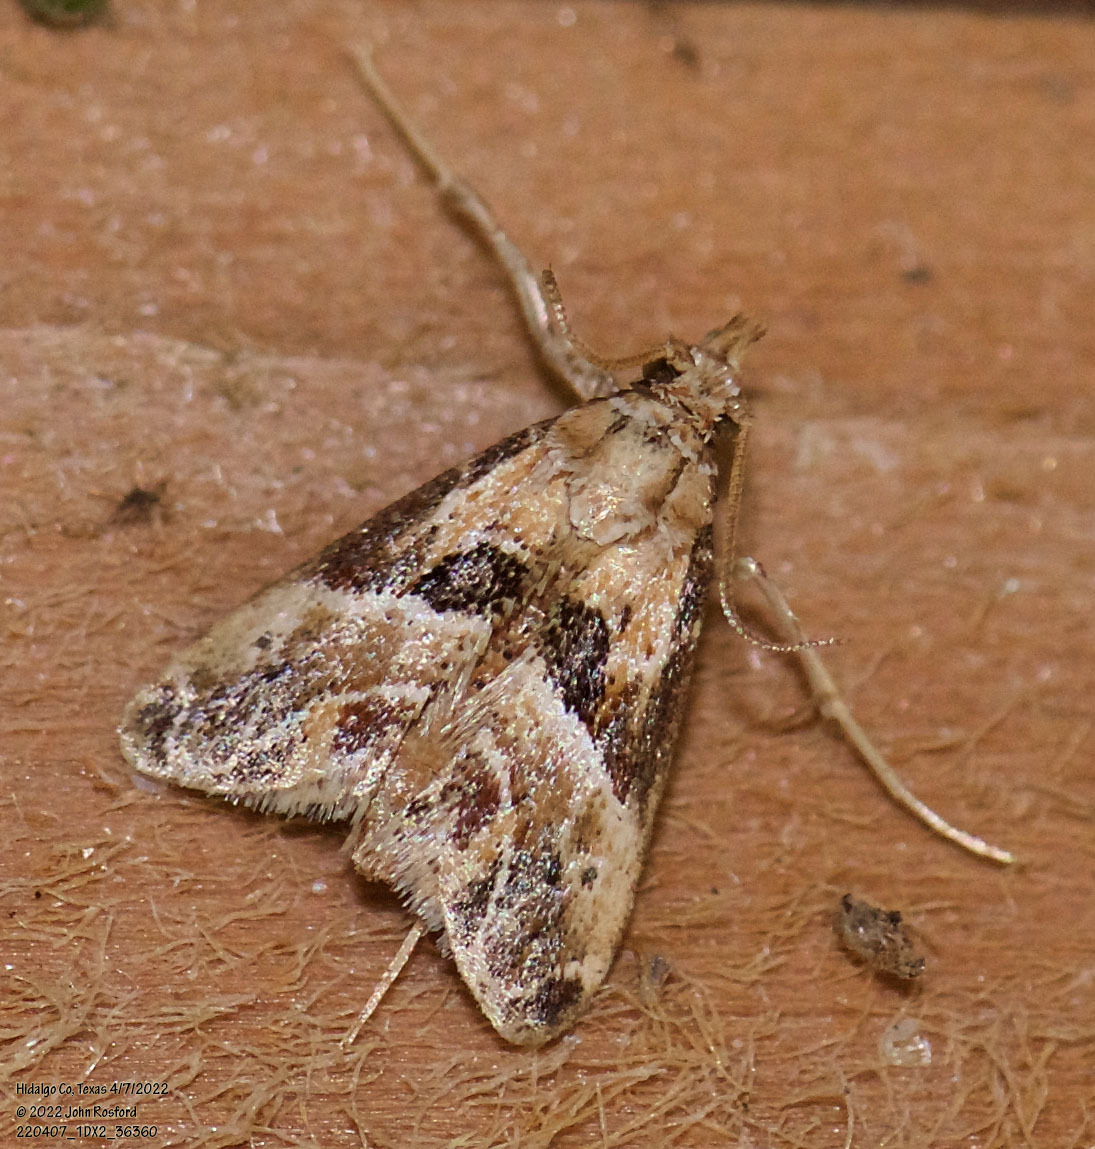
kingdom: Animalia
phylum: Arthropoda
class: Insecta
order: Lepidoptera
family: Pyralidae
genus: Neodavisia
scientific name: Neodavisia melusina
